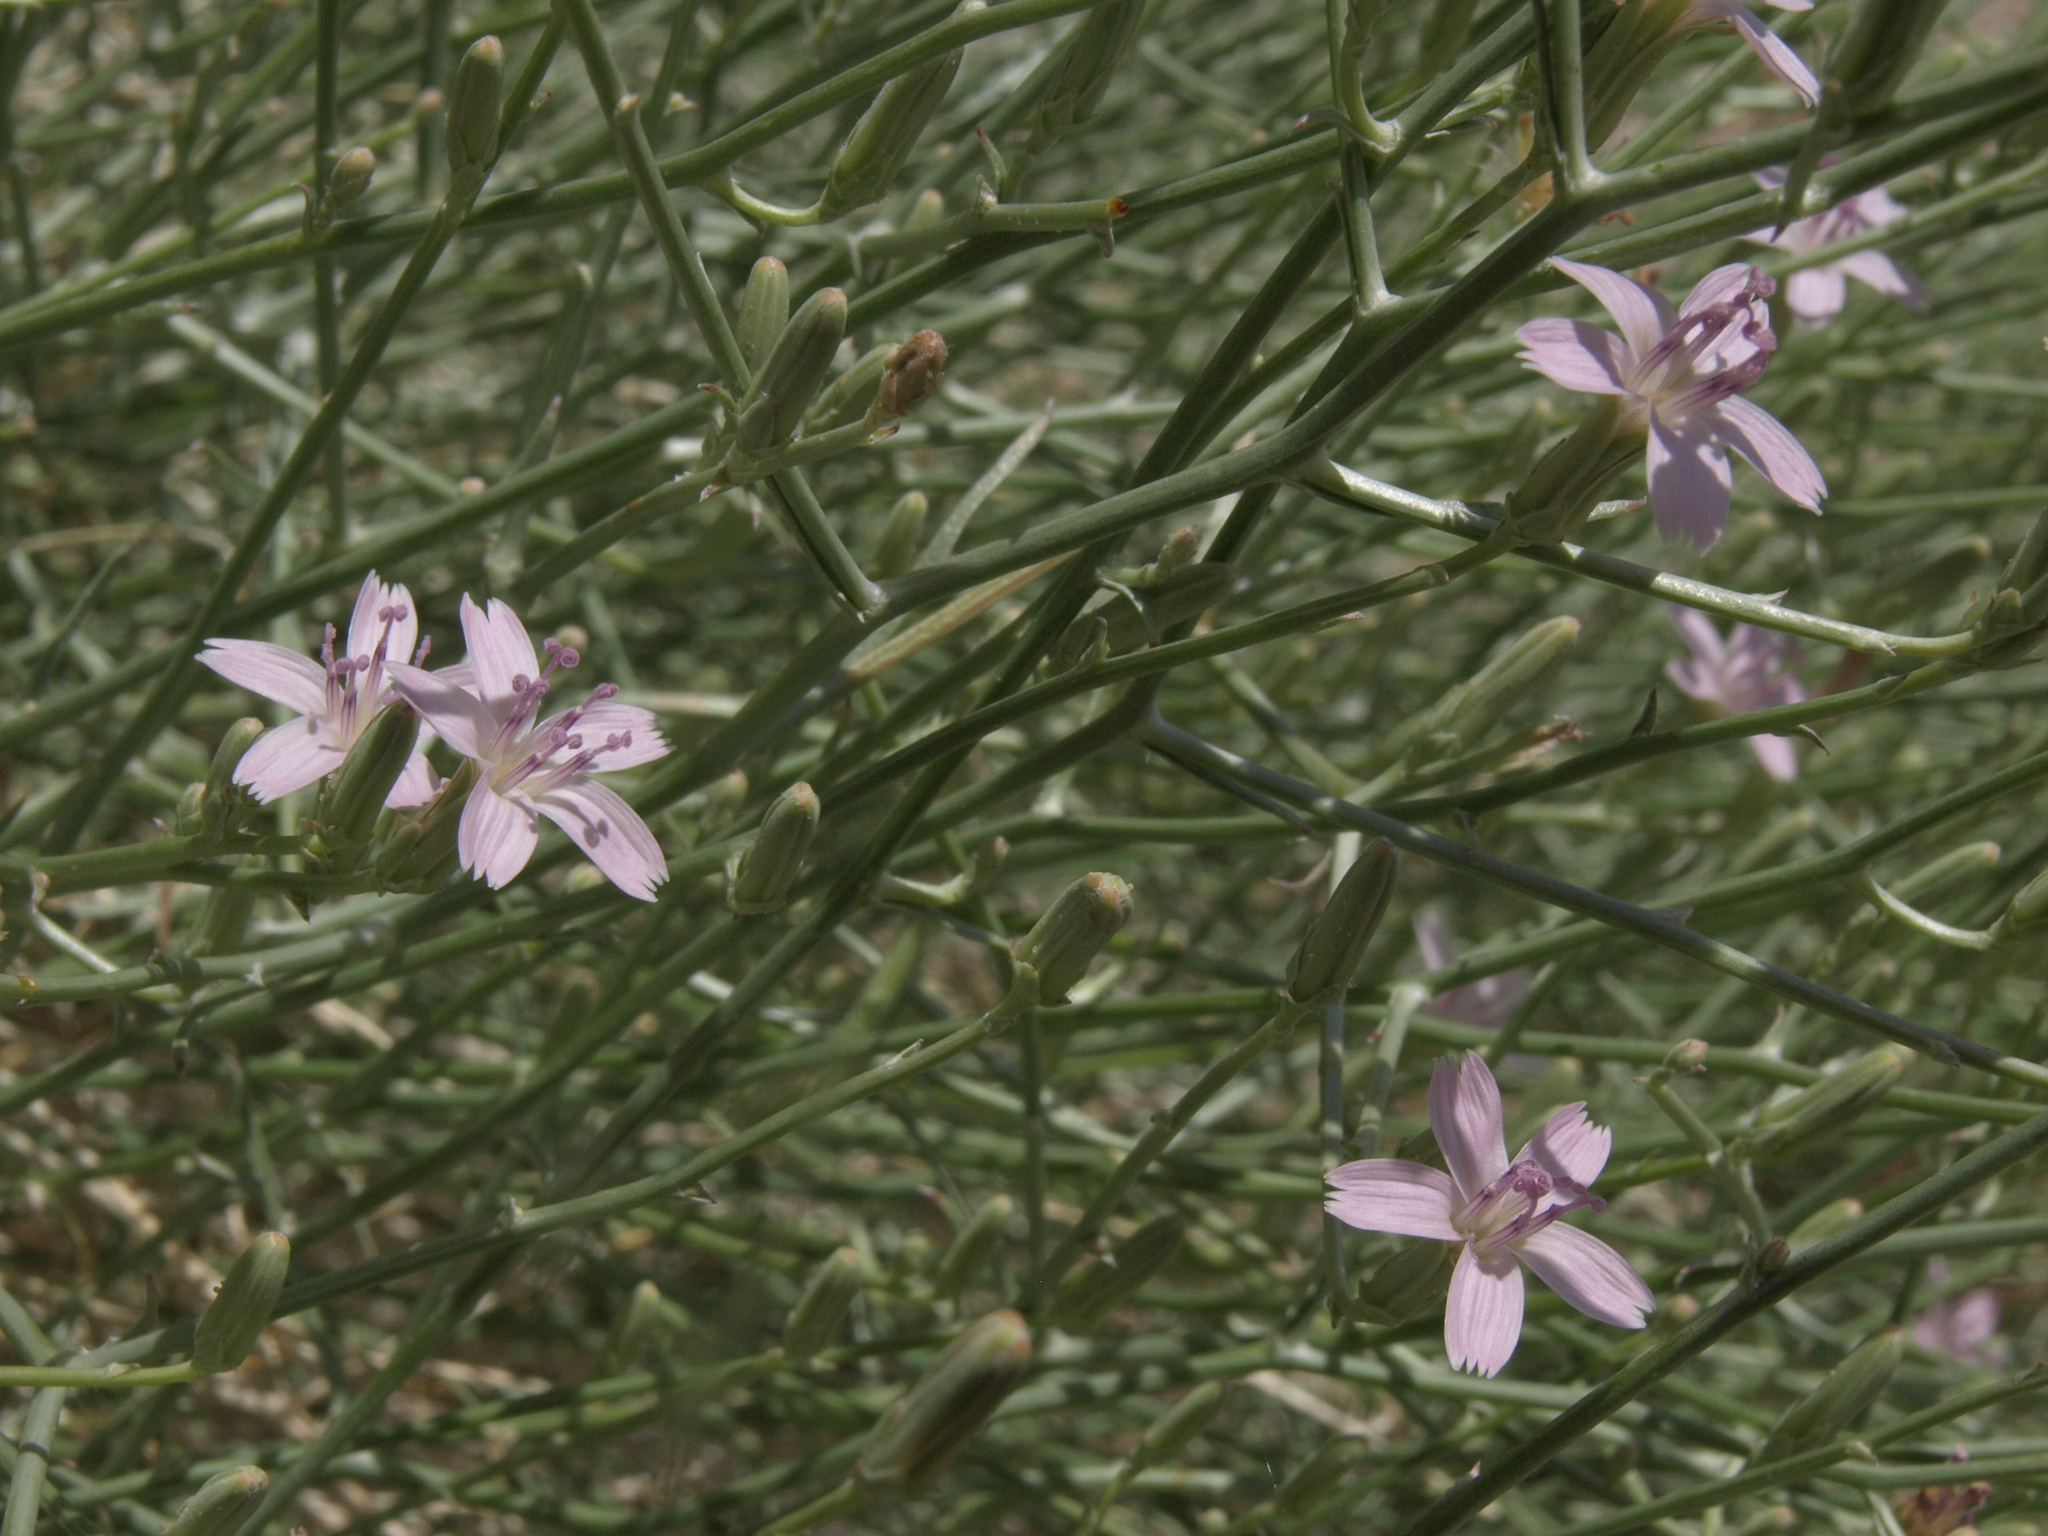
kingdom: Plantae
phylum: Tracheophyta
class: Magnoliopsida
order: Asterales
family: Asteraceae
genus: Stephanomeria
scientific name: Stephanomeria pauciflora
